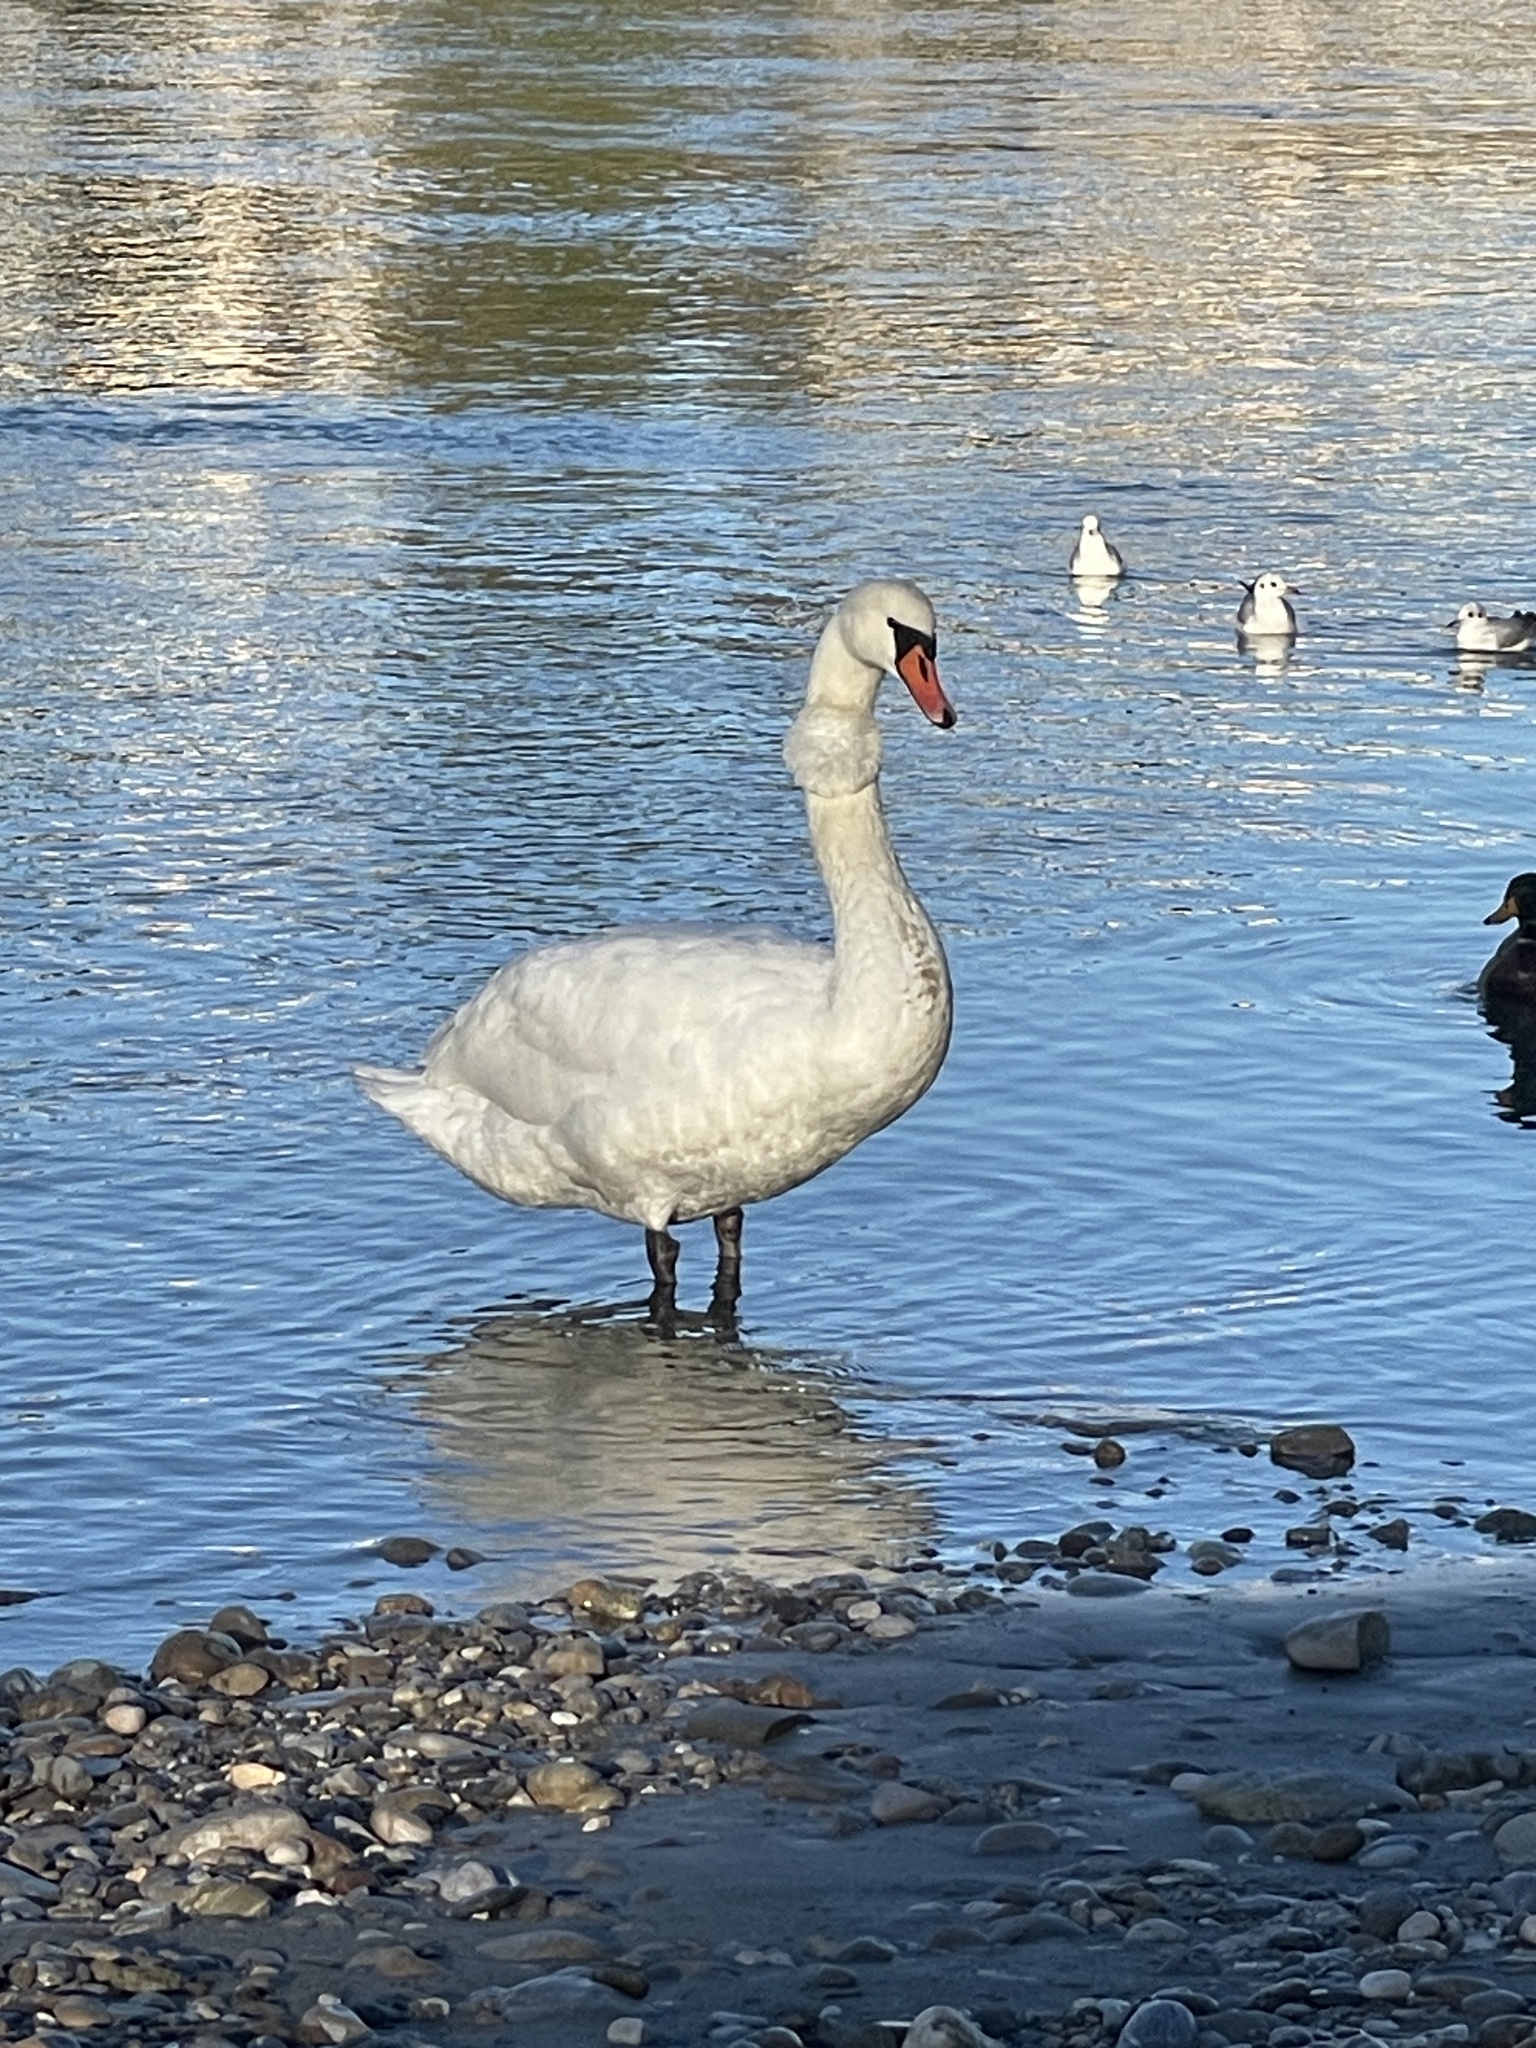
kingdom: Animalia
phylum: Chordata
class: Aves
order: Anseriformes
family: Anatidae
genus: Cygnus
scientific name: Cygnus olor
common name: Mute swan
